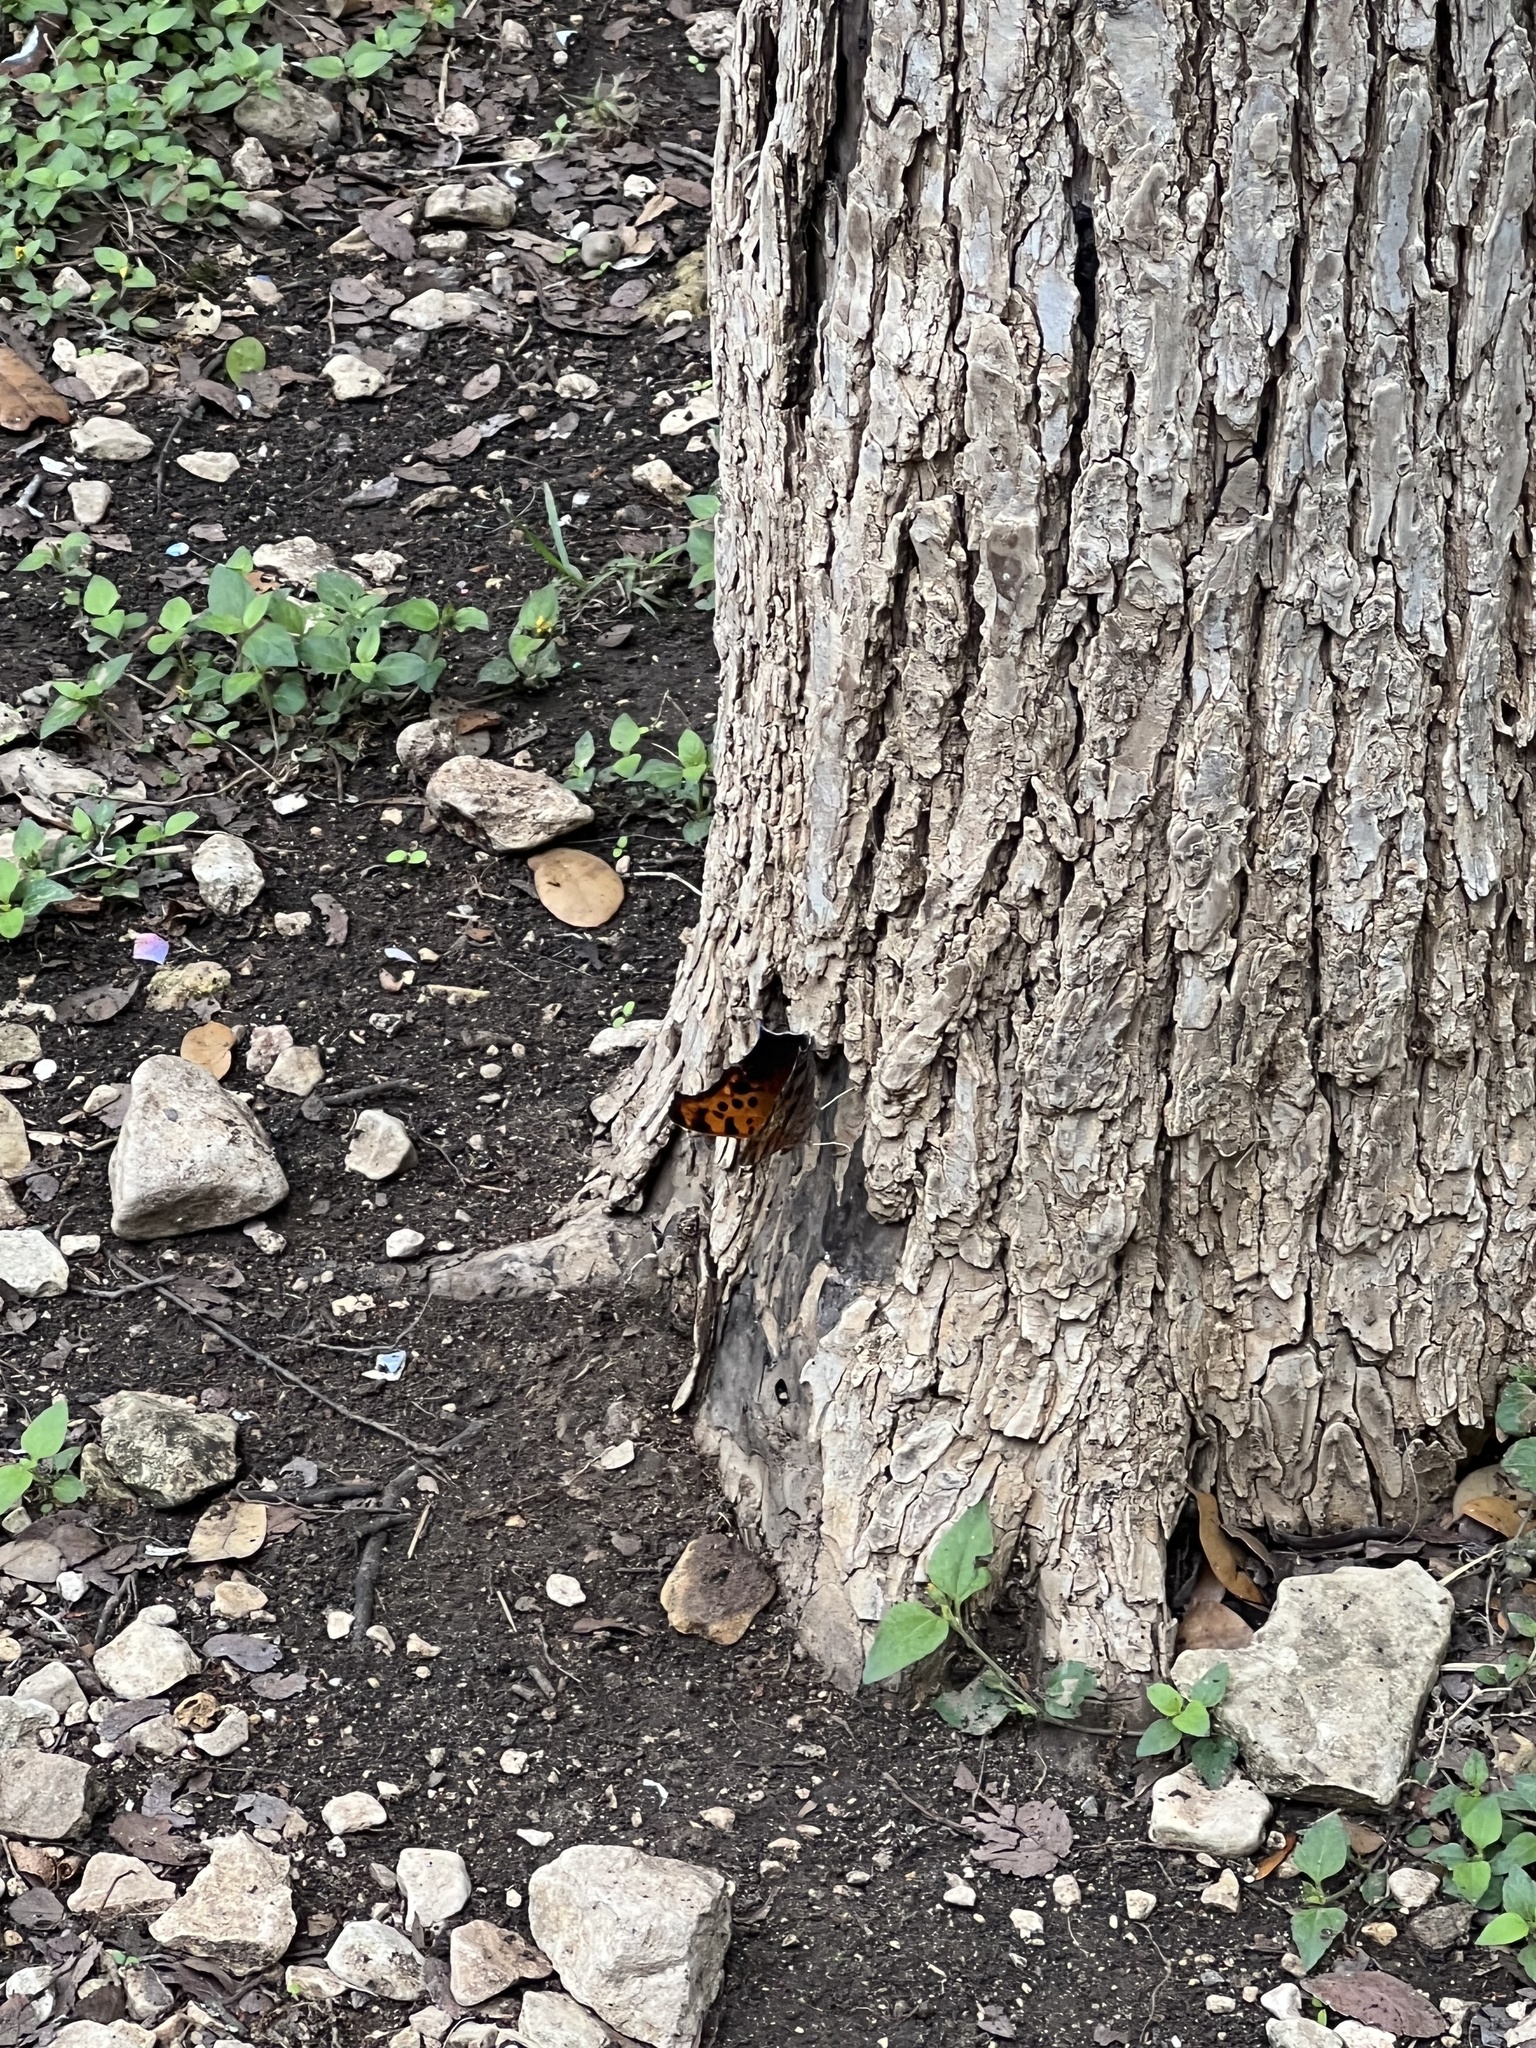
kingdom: Animalia
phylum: Arthropoda
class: Insecta
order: Lepidoptera
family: Nymphalidae
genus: Polygonia
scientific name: Polygonia interrogationis
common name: Question mark
